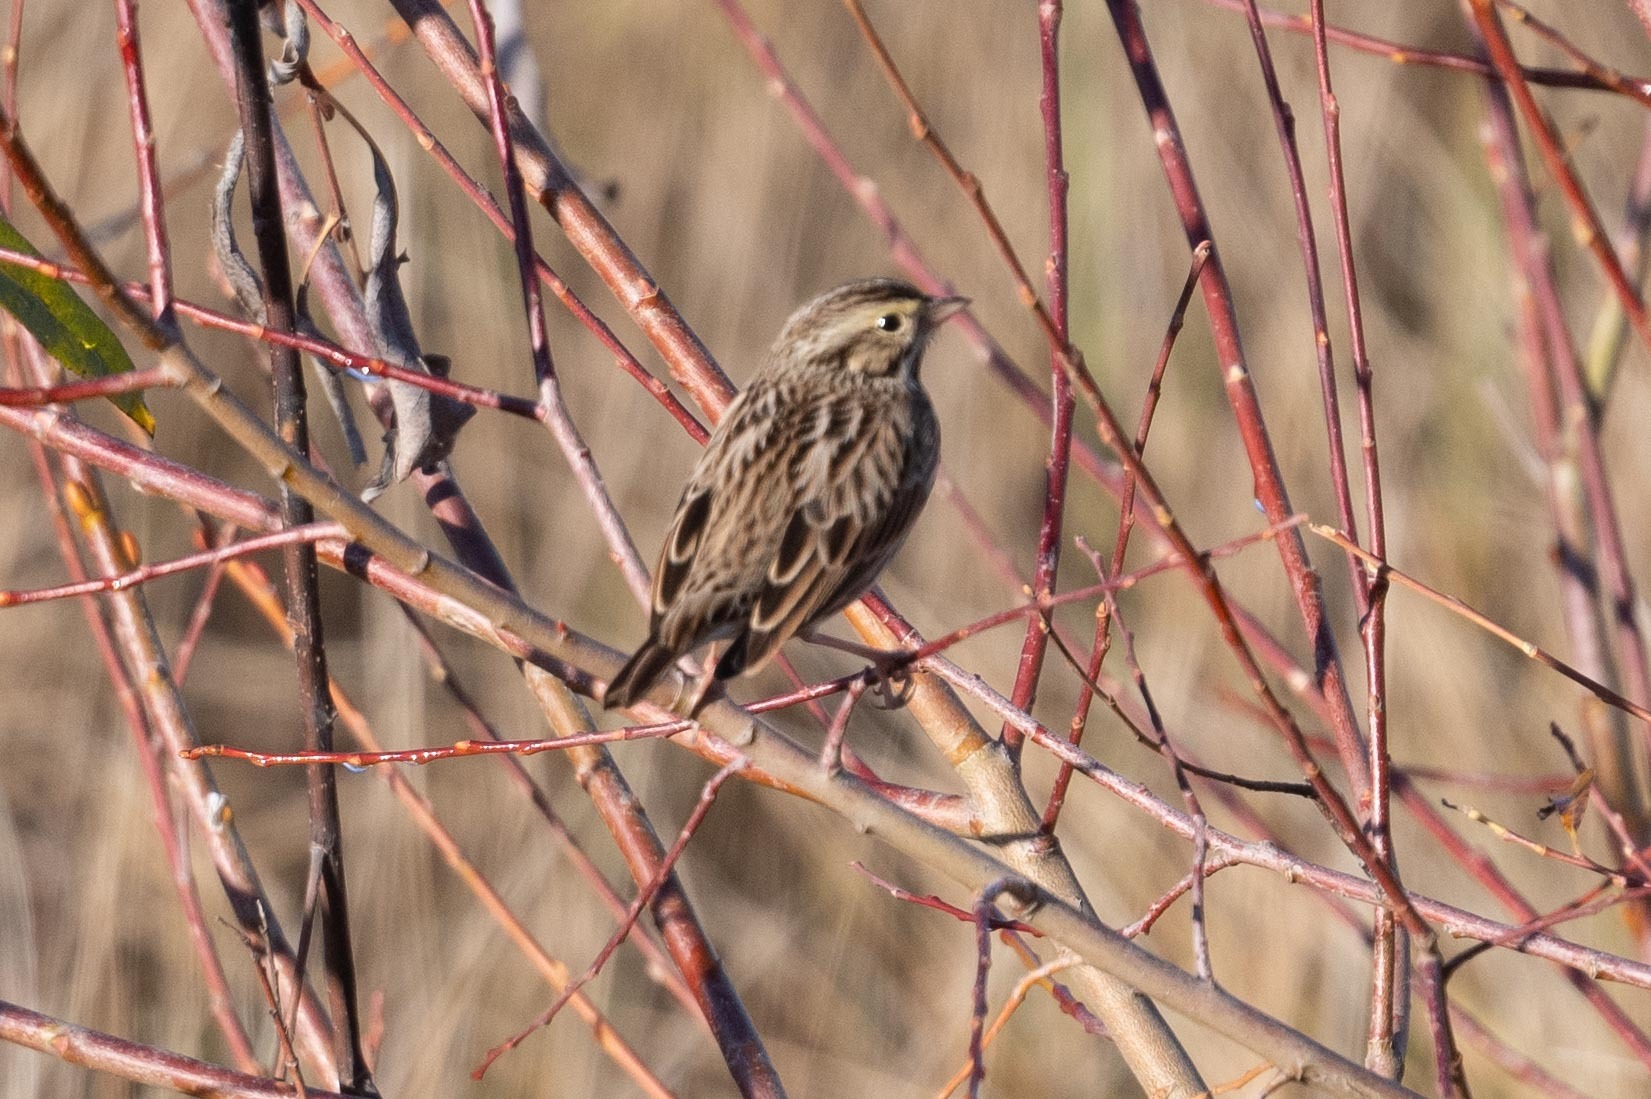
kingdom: Animalia
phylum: Chordata
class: Aves
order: Passeriformes
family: Passerellidae
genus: Passerculus
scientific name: Passerculus sandwichensis
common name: Savannah sparrow
